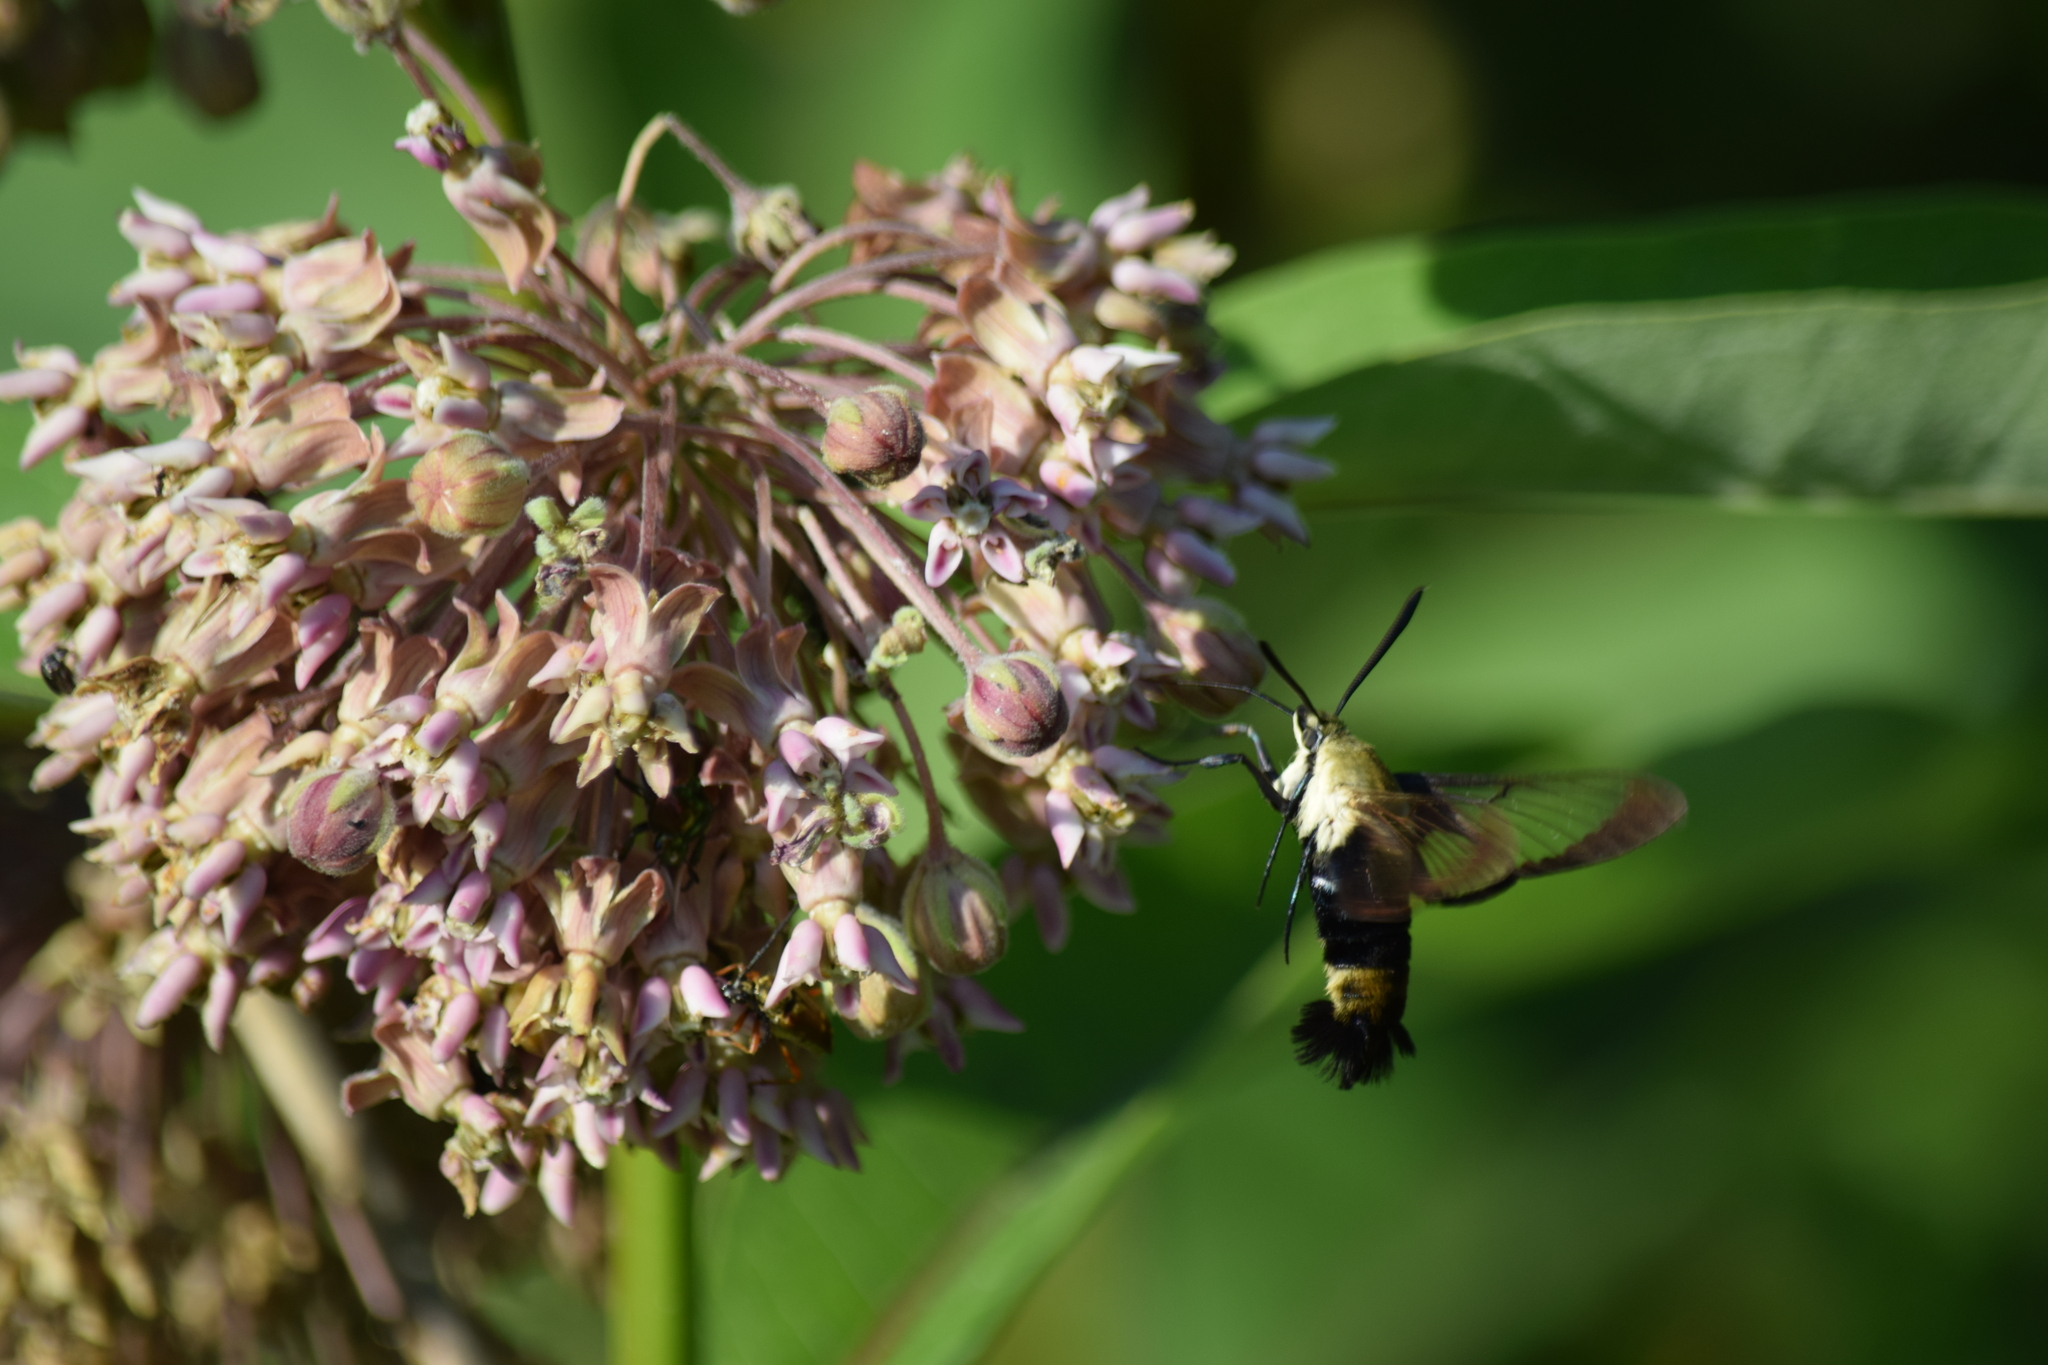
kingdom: Animalia
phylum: Arthropoda
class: Insecta
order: Lepidoptera
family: Sphingidae
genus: Hemaris
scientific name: Hemaris diffinis
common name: Bumblebee moth
